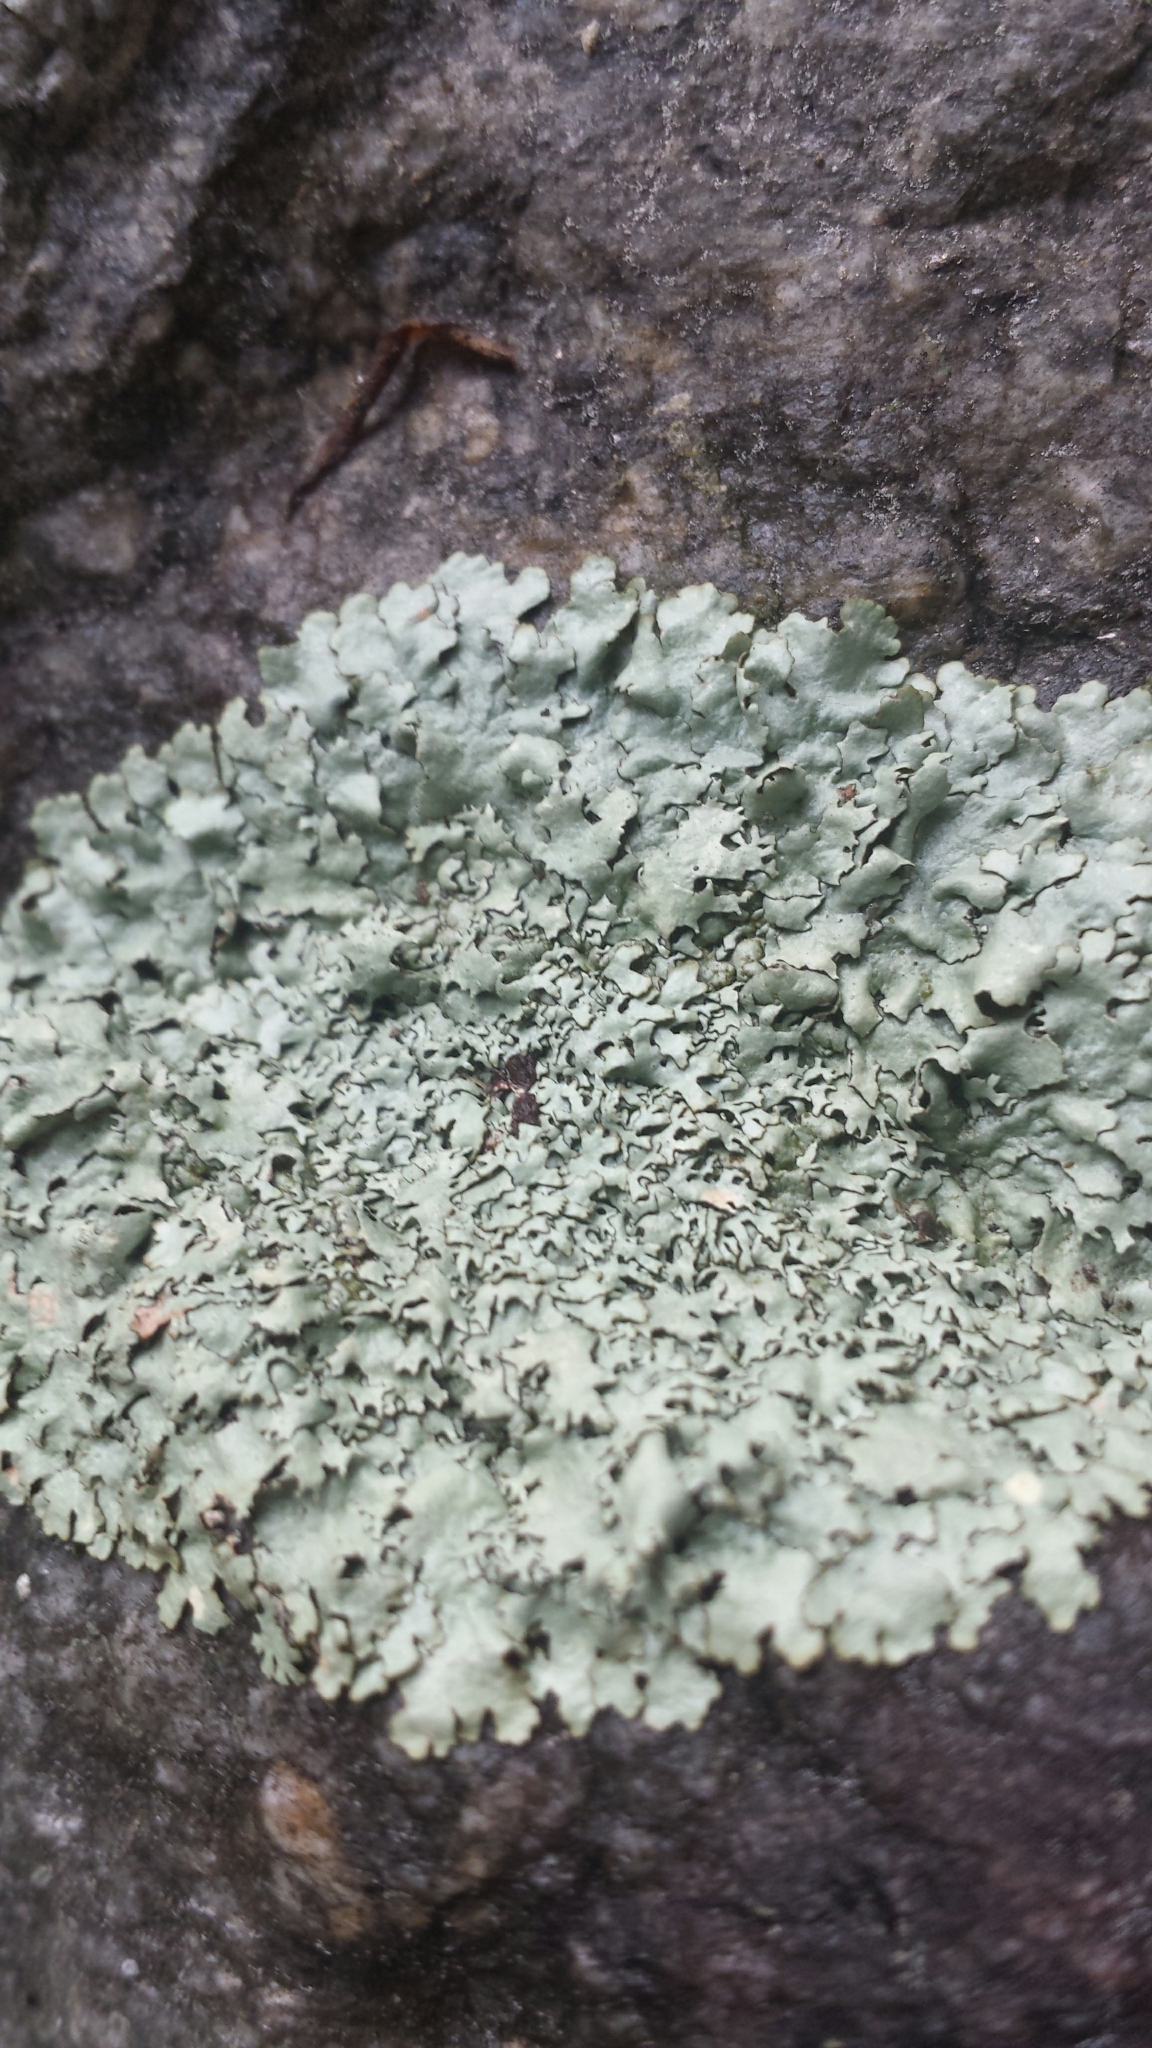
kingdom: Fungi
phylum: Ascomycota
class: Lecanoromycetes
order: Lecanorales
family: Parmeliaceae
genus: Flavoparmelia
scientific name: Flavoparmelia caperata
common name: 40-mile per hour lichen
